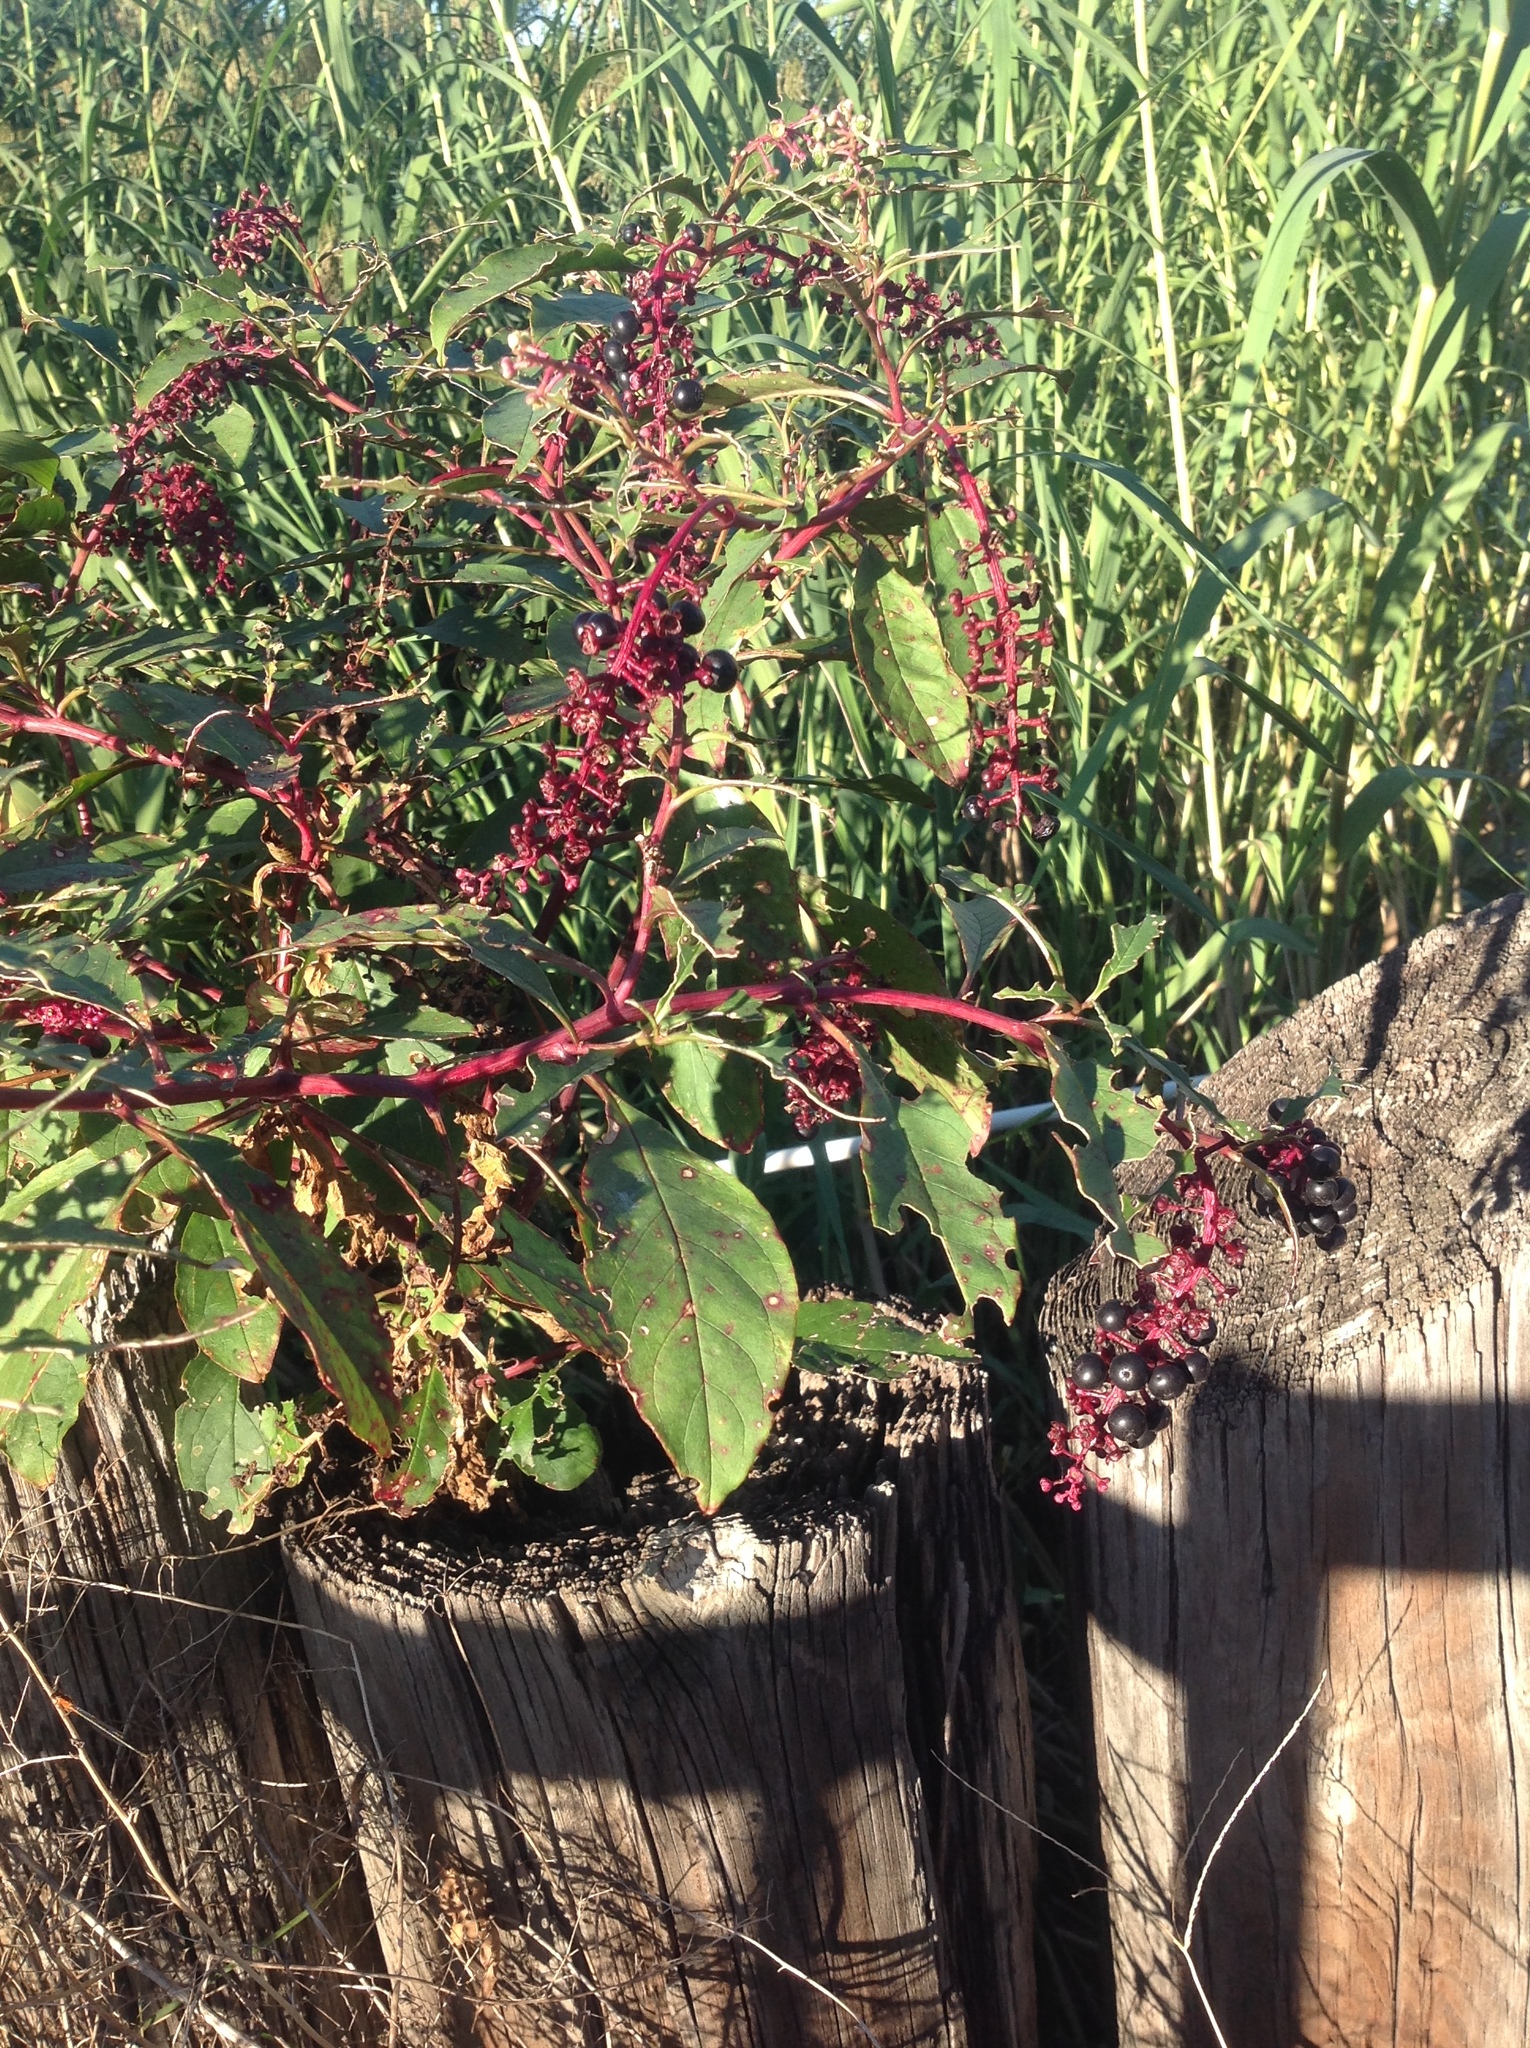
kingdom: Plantae
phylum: Tracheophyta
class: Magnoliopsida
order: Caryophyllales
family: Phytolaccaceae
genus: Phytolacca
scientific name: Phytolacca americana
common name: American pokeweed
